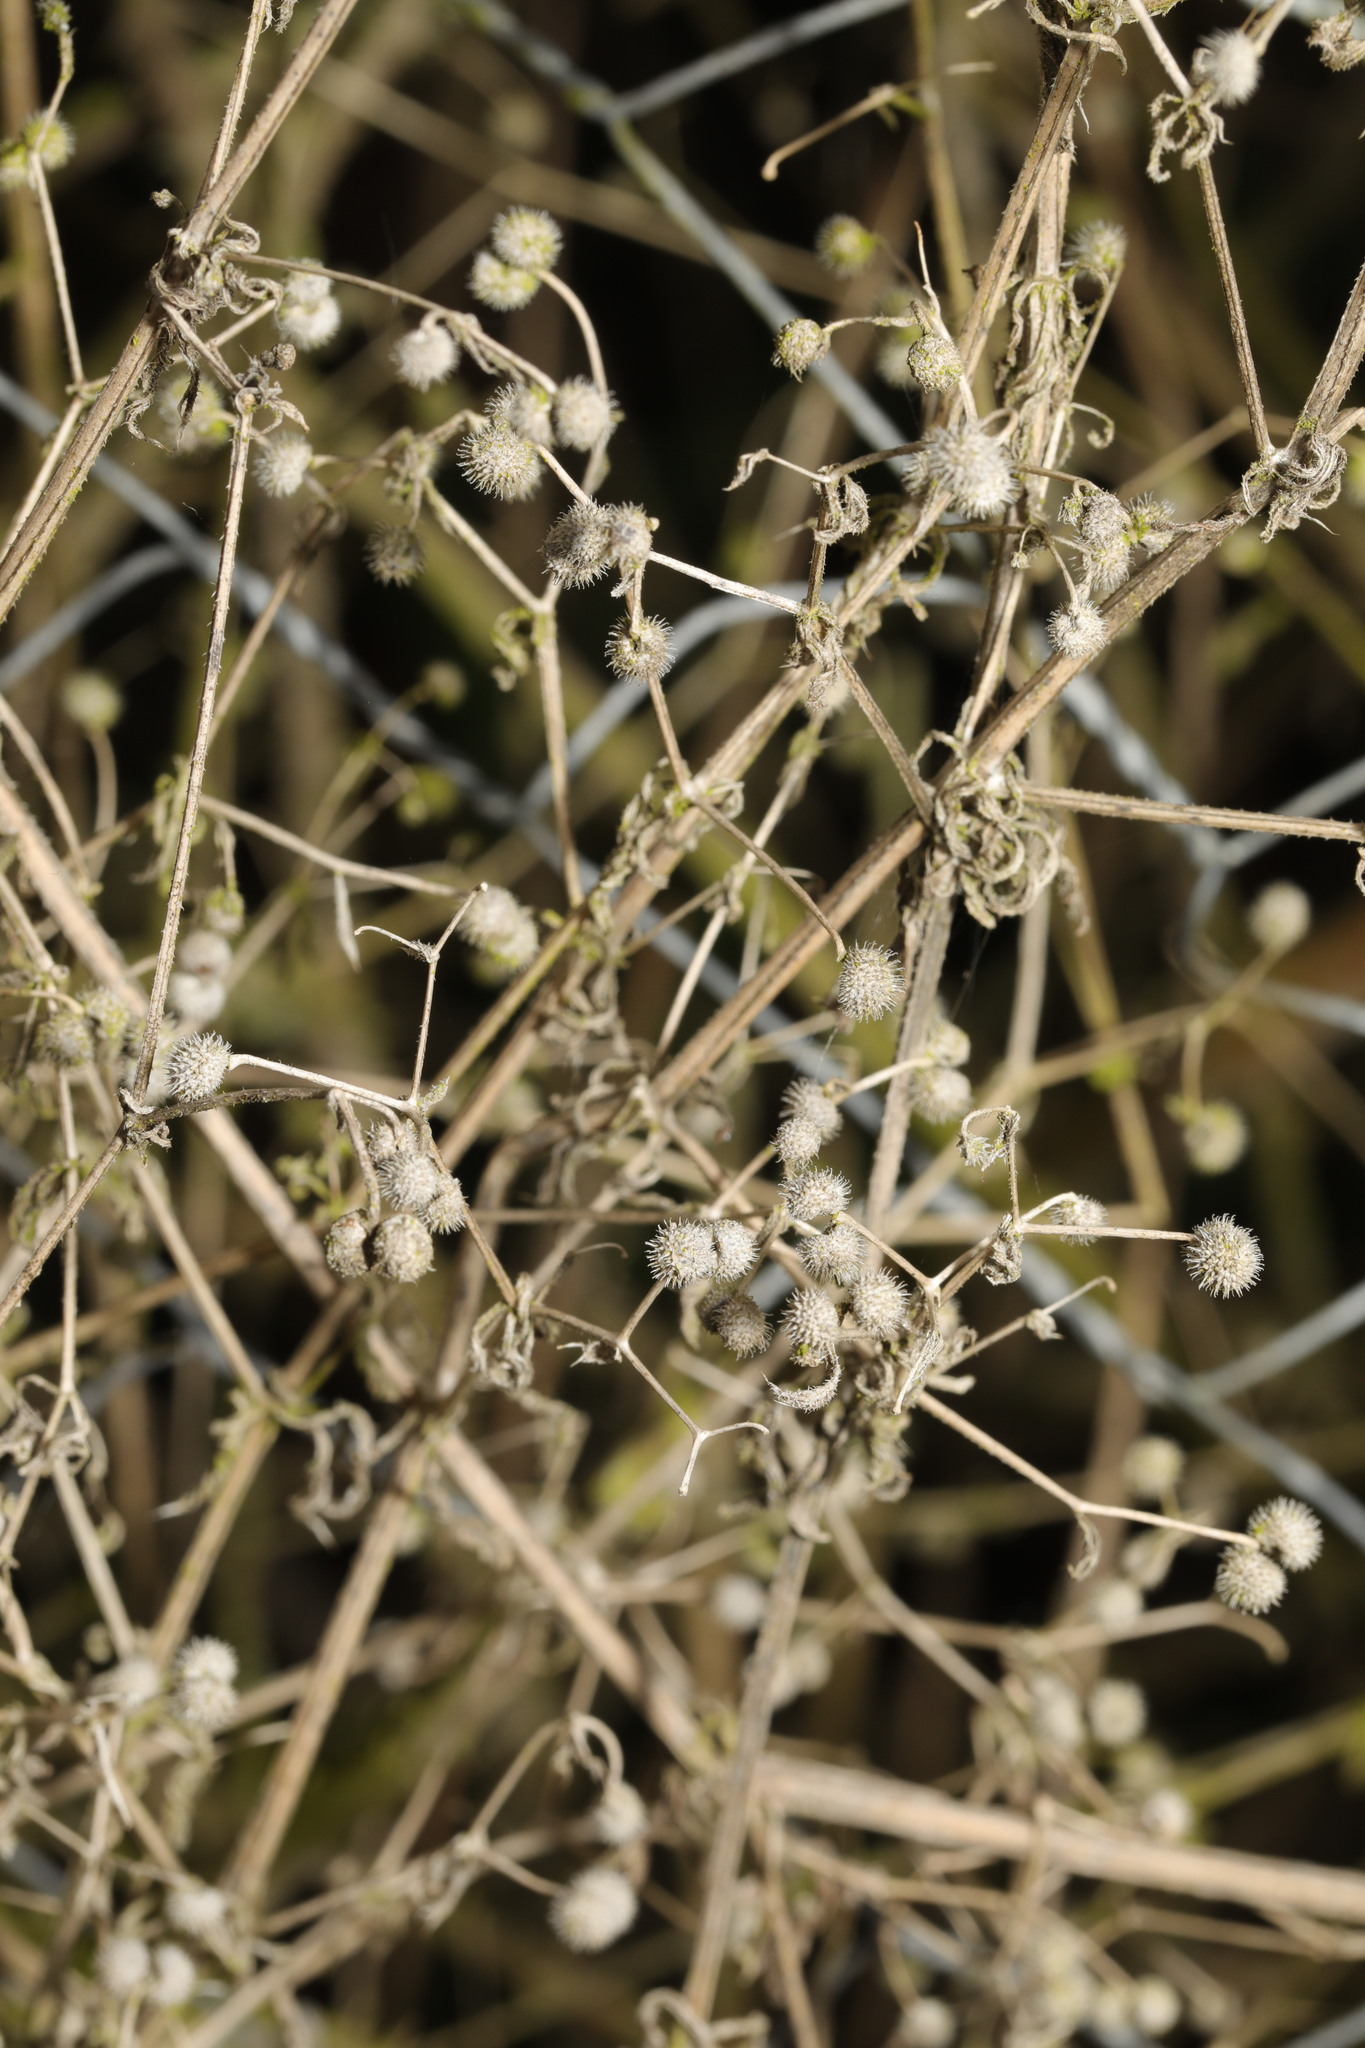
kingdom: Plantae
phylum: Tracheophyta
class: Magnoliopsida
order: Gentianales
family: Rubiaceae
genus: Galium
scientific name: Galium aparine
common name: Cleavers
